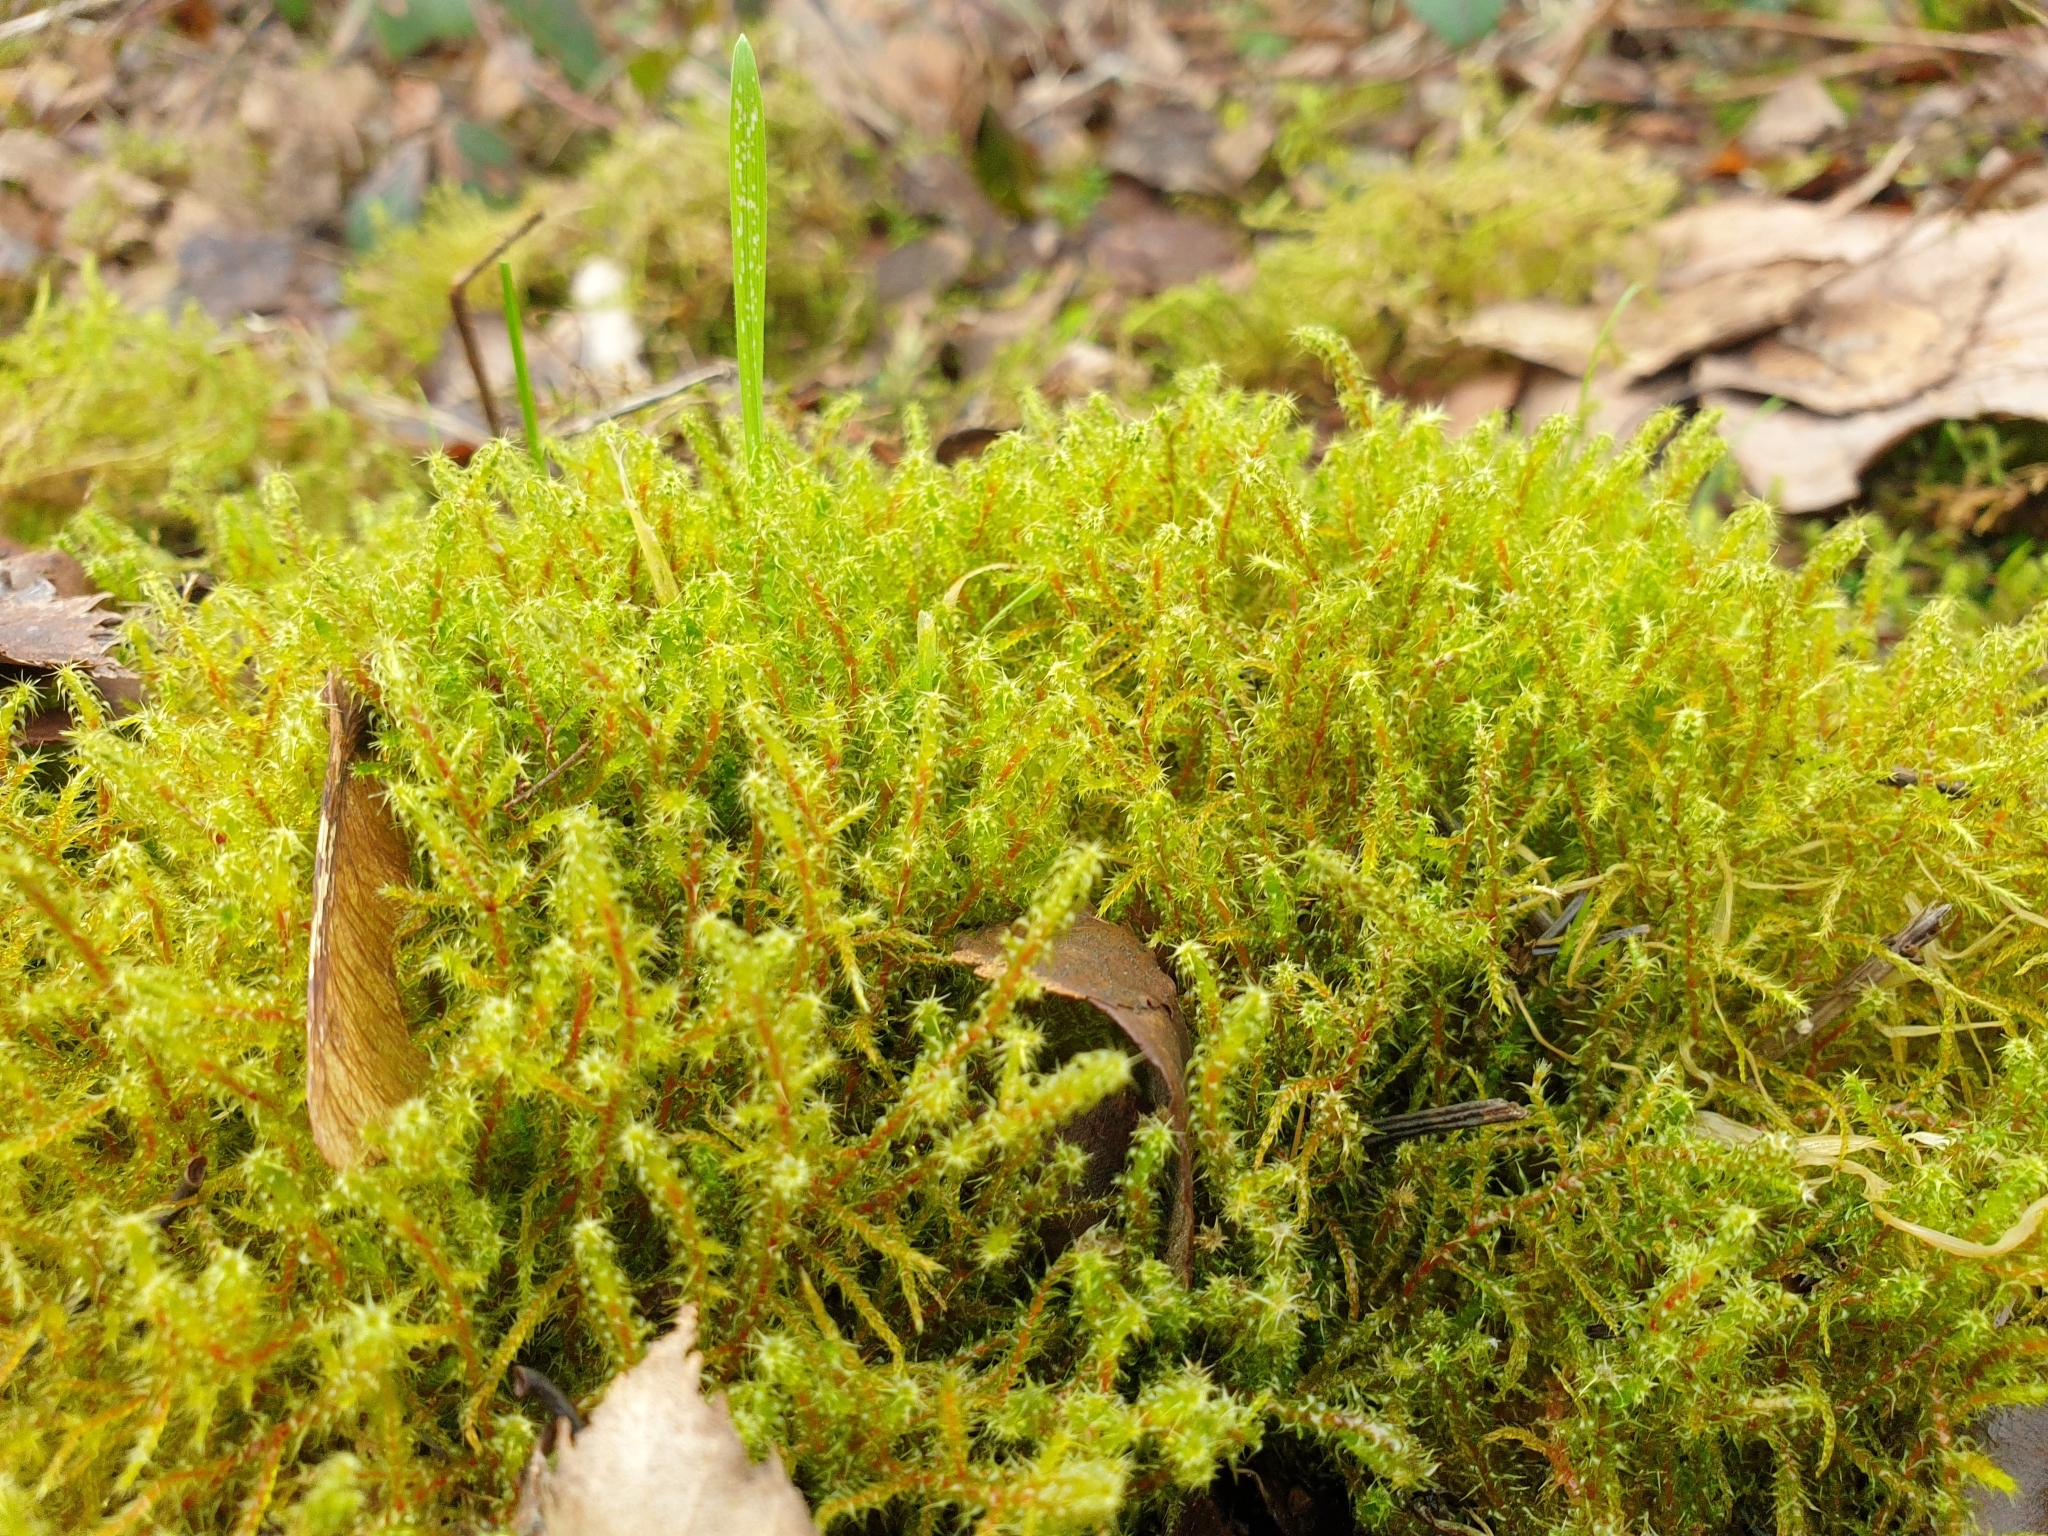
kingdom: Plantae
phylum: Bryophyta
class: Bryopsida
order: Hypnales
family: Hylocomiaceae
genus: Rhytidiadelphus
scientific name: Rhytidiadelphus squarrosus
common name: Springy turf-moss
